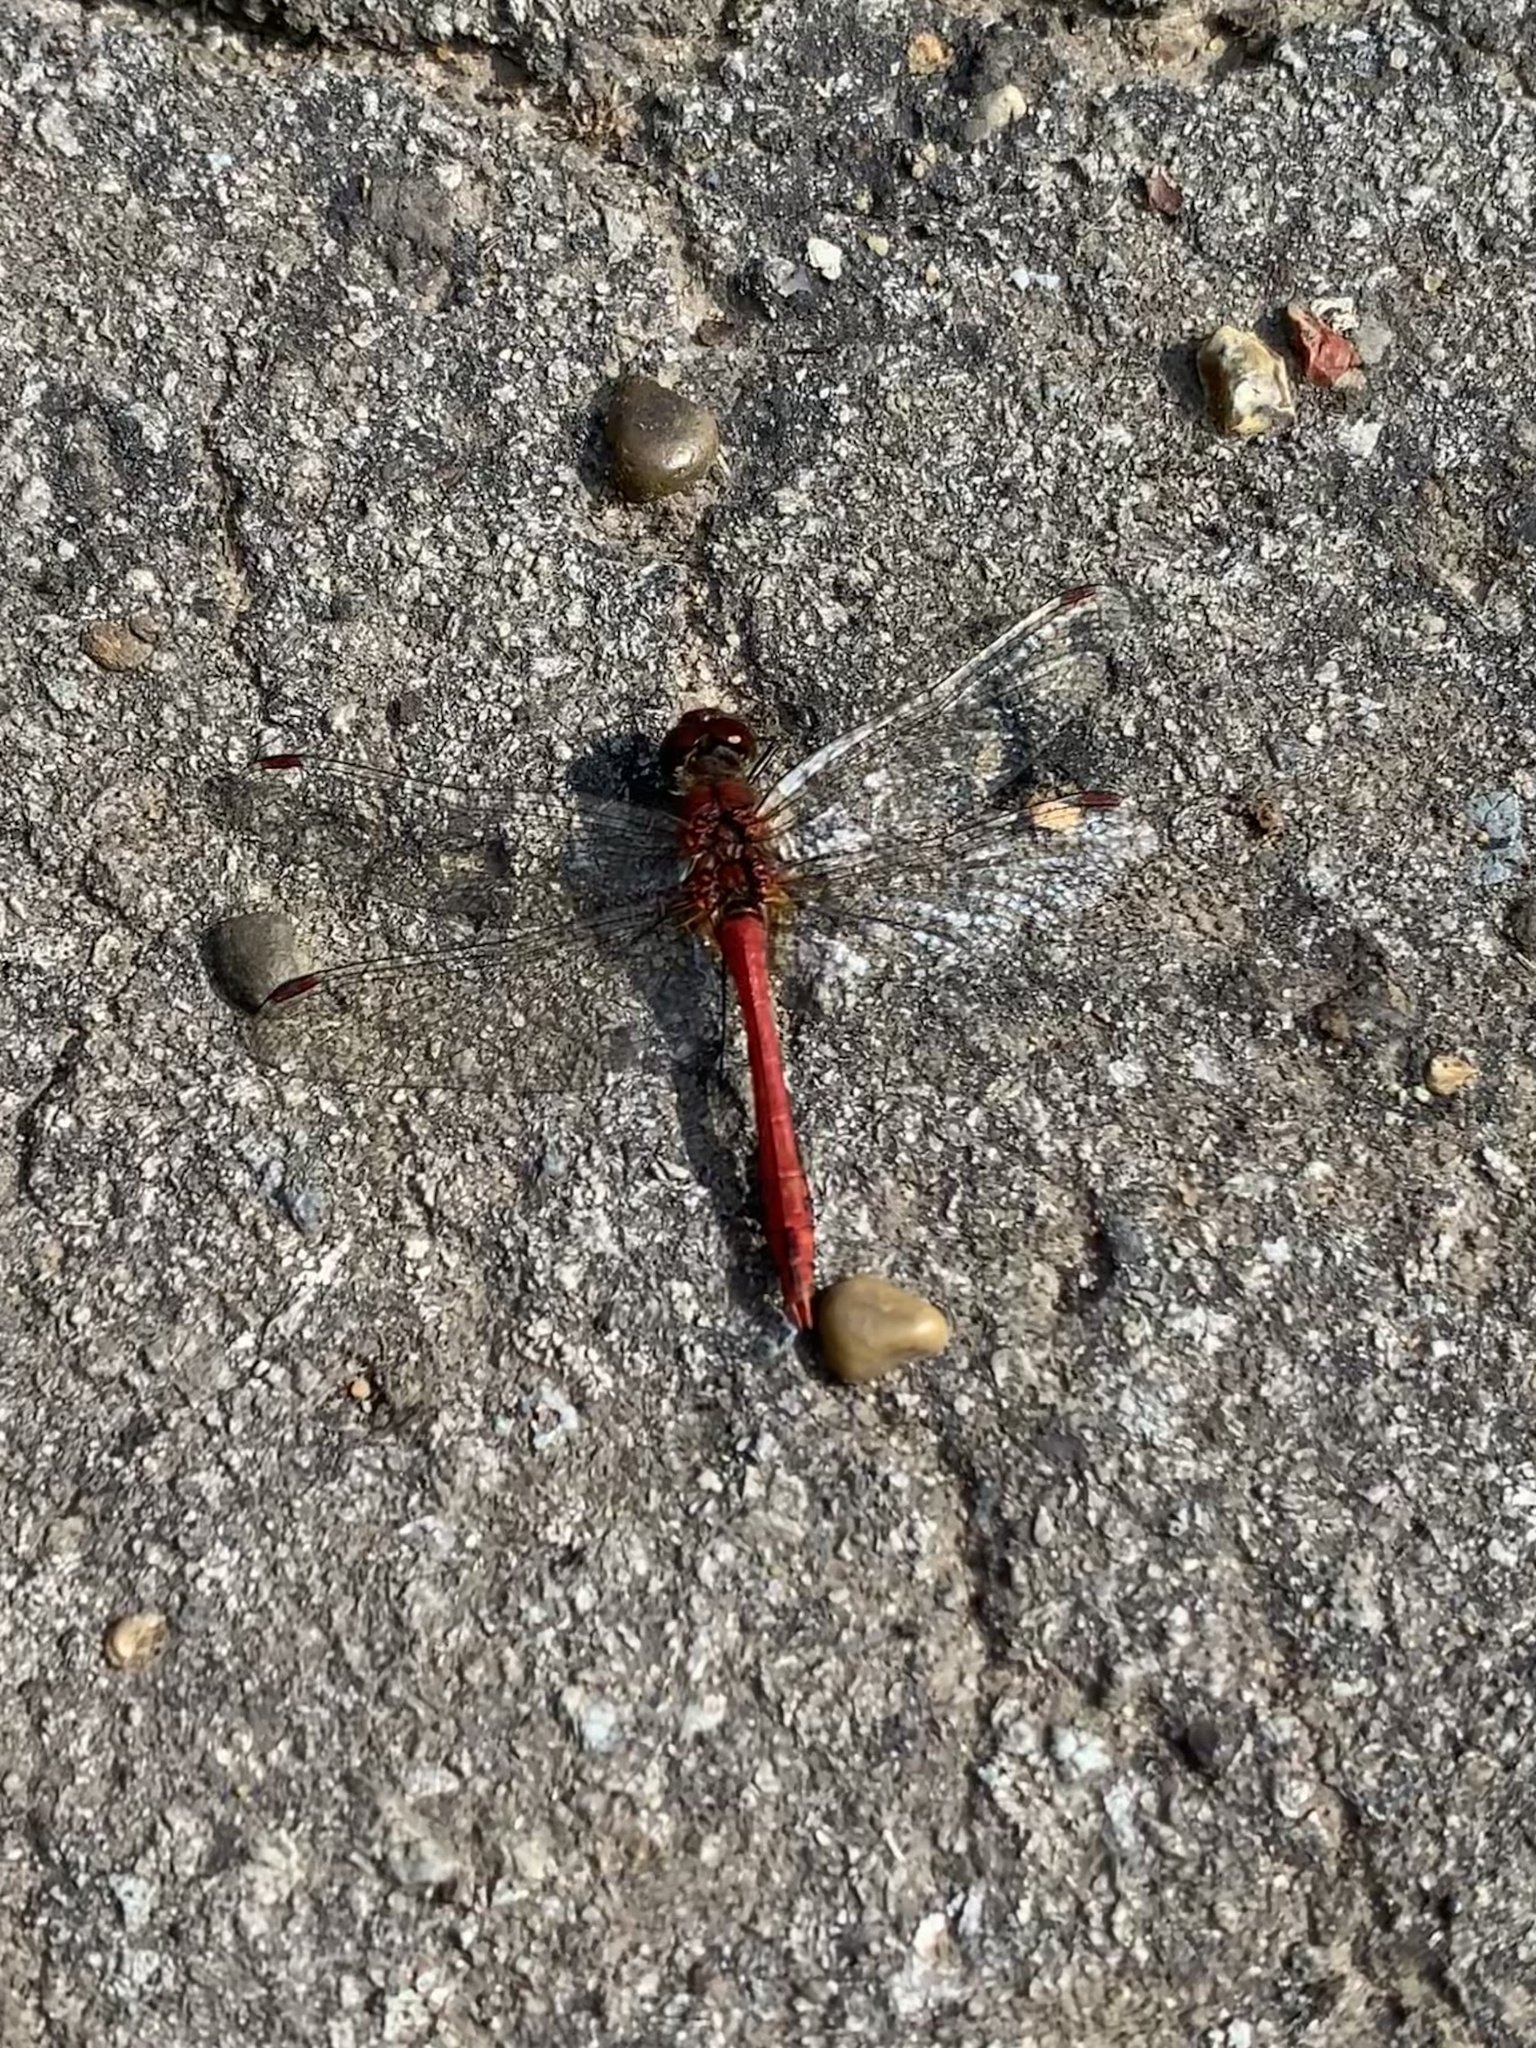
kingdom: Animalia
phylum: Arthropoda
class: Insecta
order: Odonata
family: Libellulidae
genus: Sympetrum
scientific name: Sympetrum sanguineum
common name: Ruddy darter
